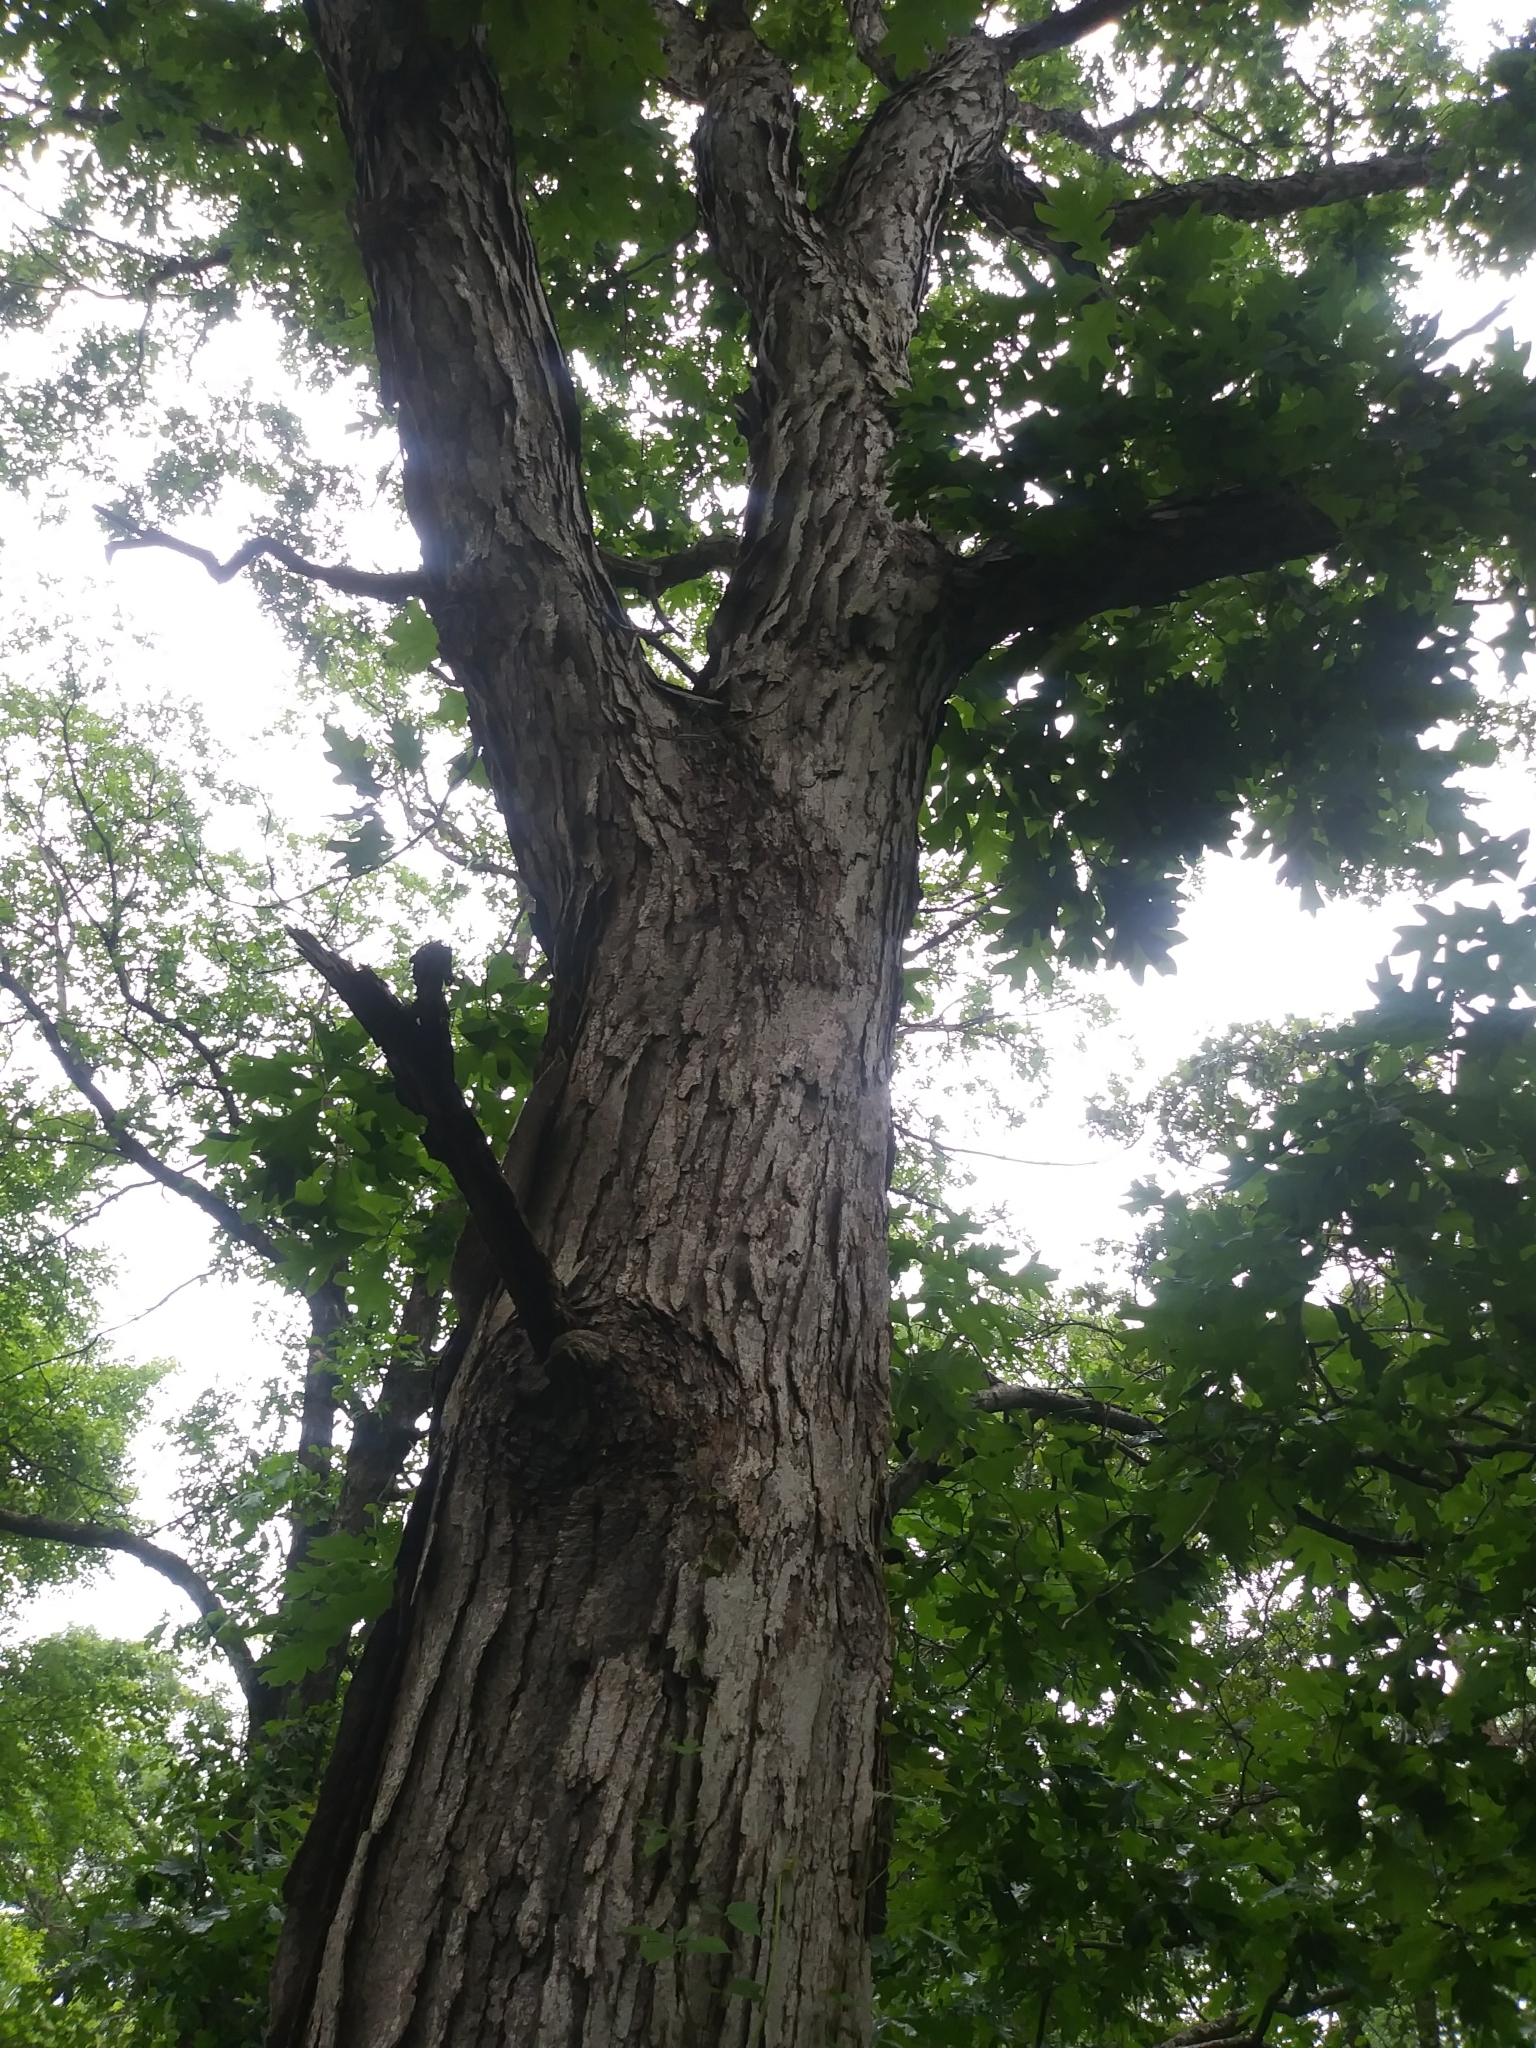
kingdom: Plantae
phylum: Tracheophyta
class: Magnoliopsida
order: Fagales
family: Fagaceae
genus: Quercus
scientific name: Quercus alba
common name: White oak
